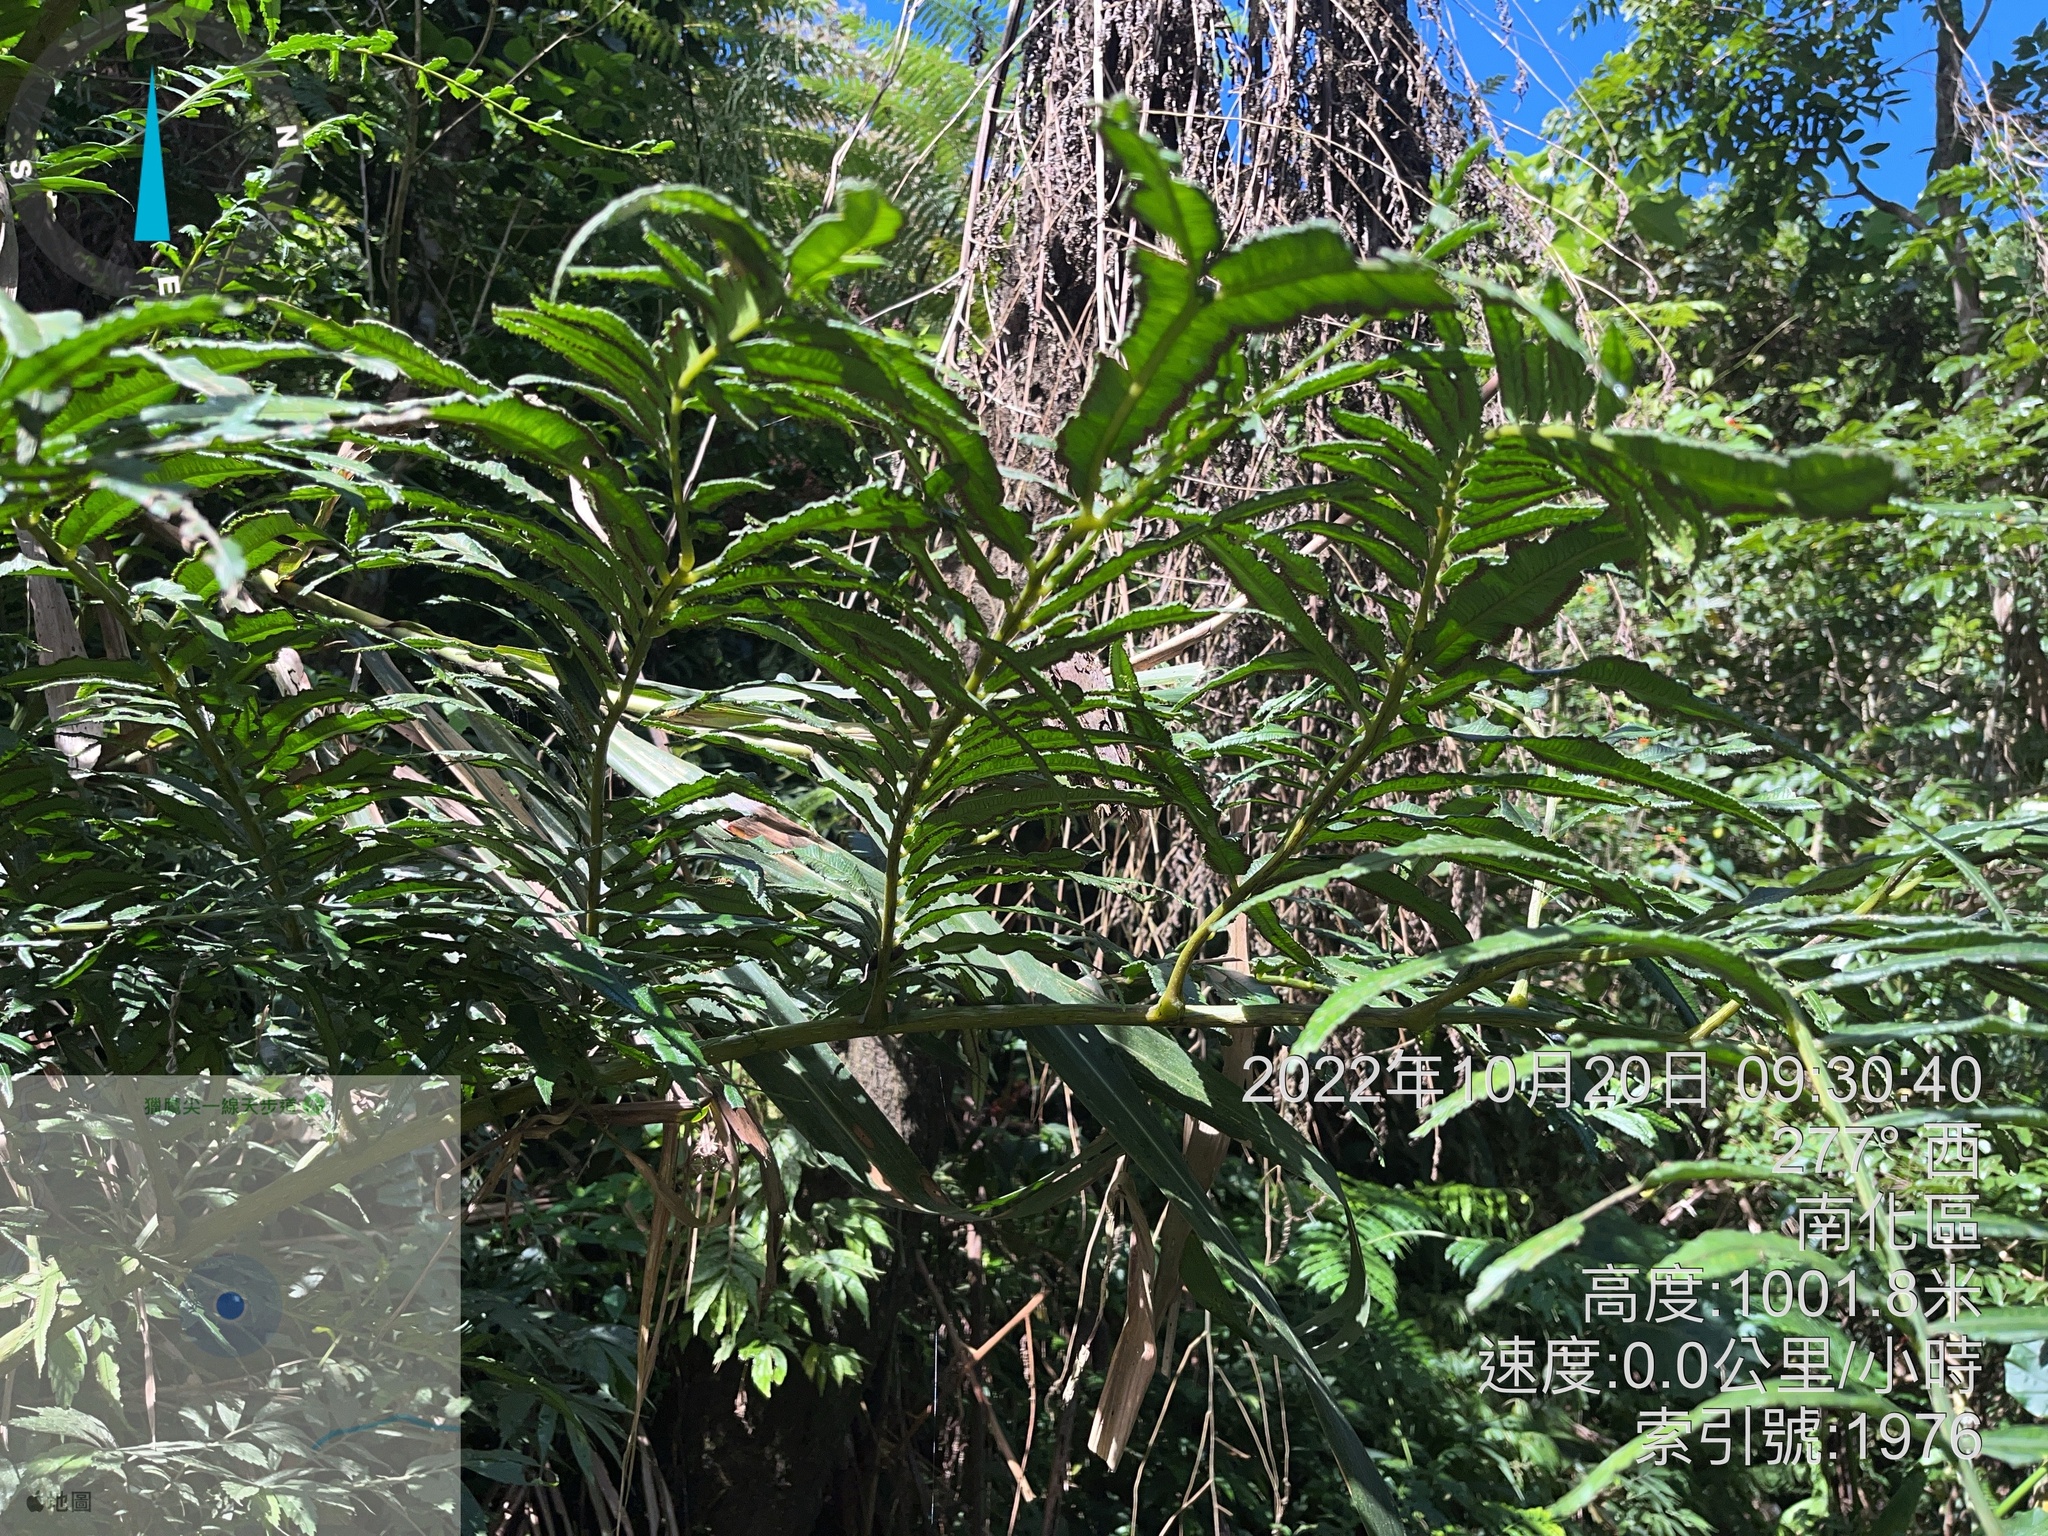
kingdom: Plantae
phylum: Tracheophyta
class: Polypodiopsida
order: Cyatheales
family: Plagiogyriaceae
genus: Plagiogyria
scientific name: Plagiogyria euphlebia
